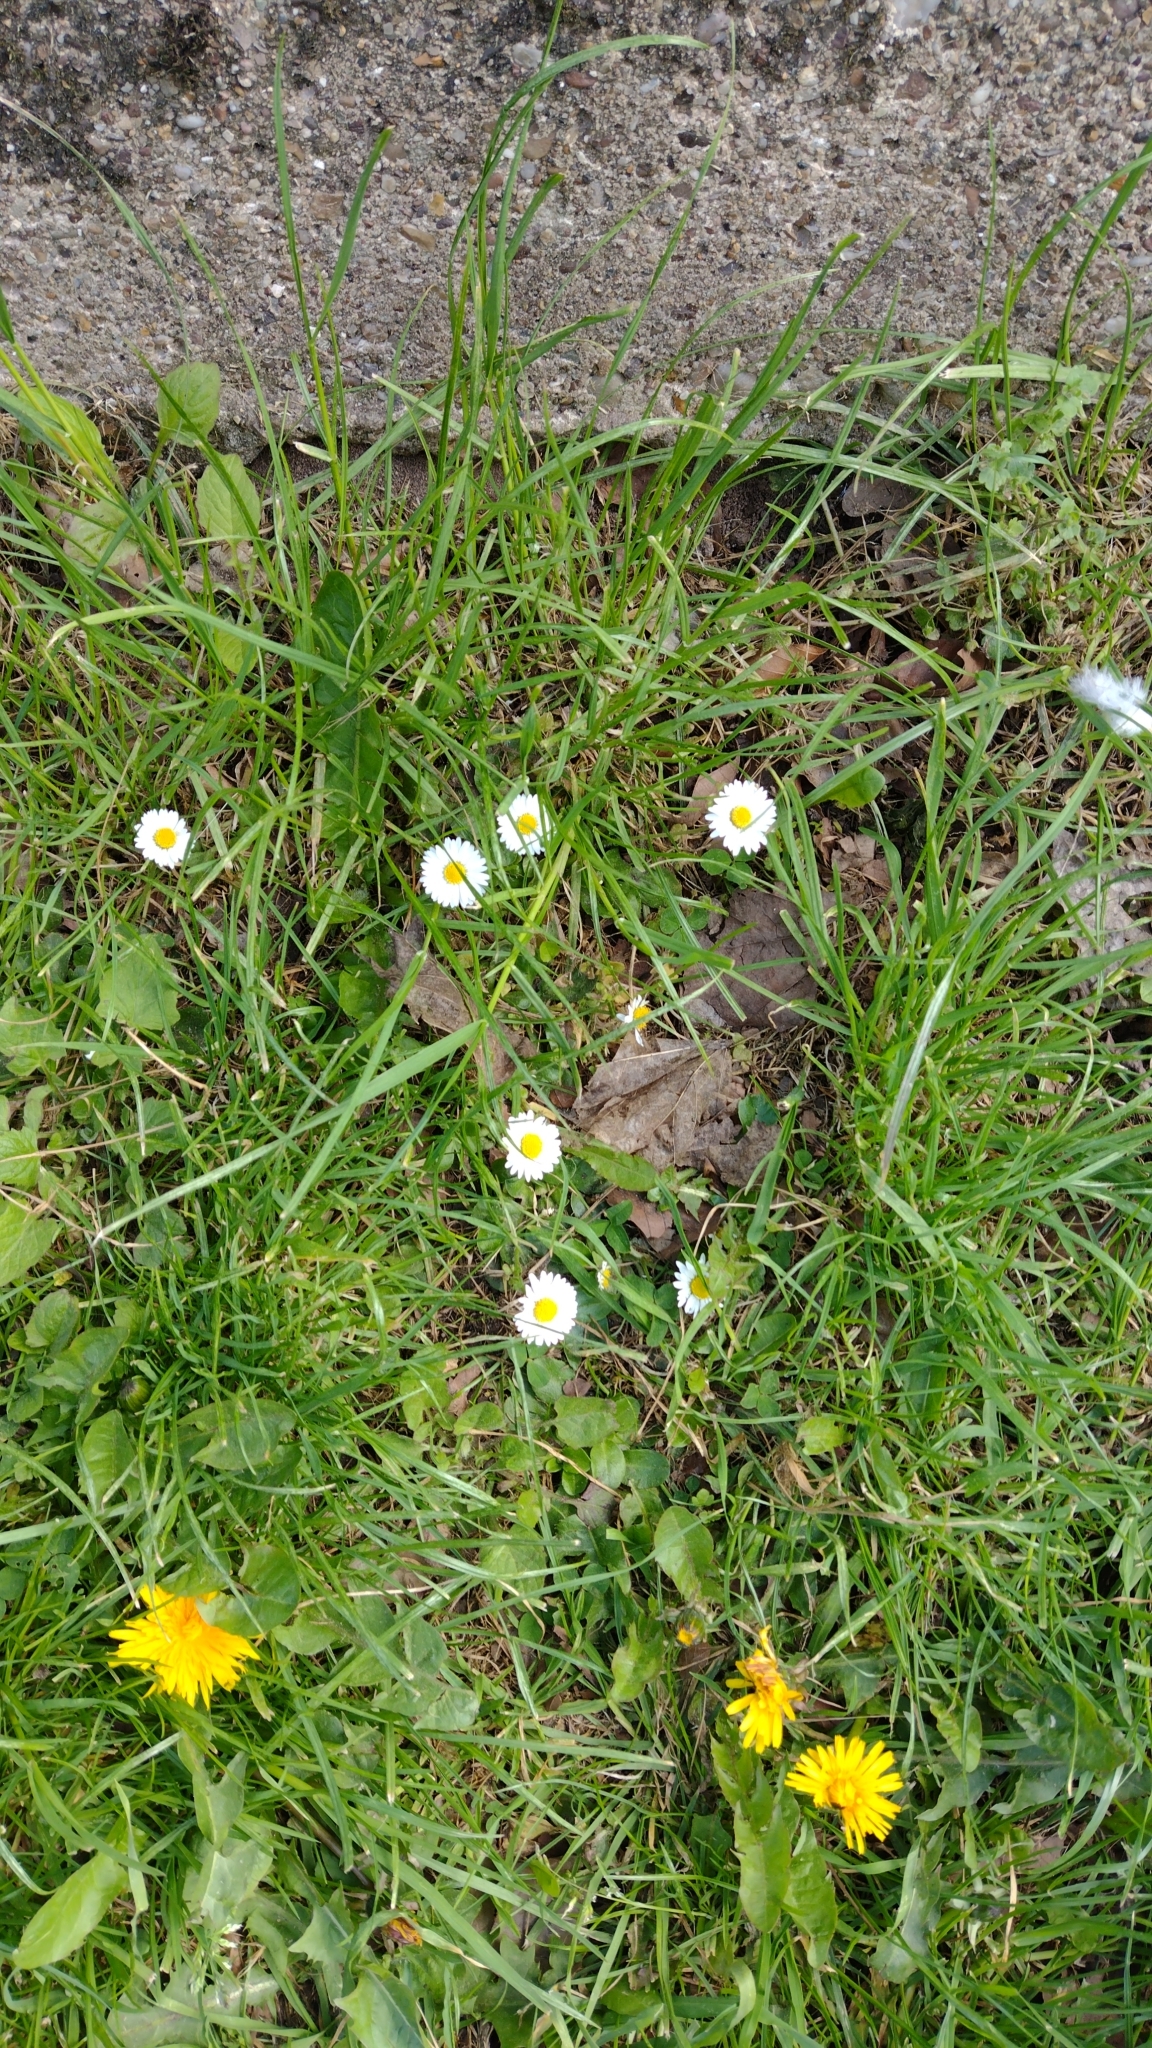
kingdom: Plantae
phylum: Tracheophyta
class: Magnoliopsida
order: Asterales
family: Asteraceae
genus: Bellis
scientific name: Bellis perennis
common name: Lawndaisy
